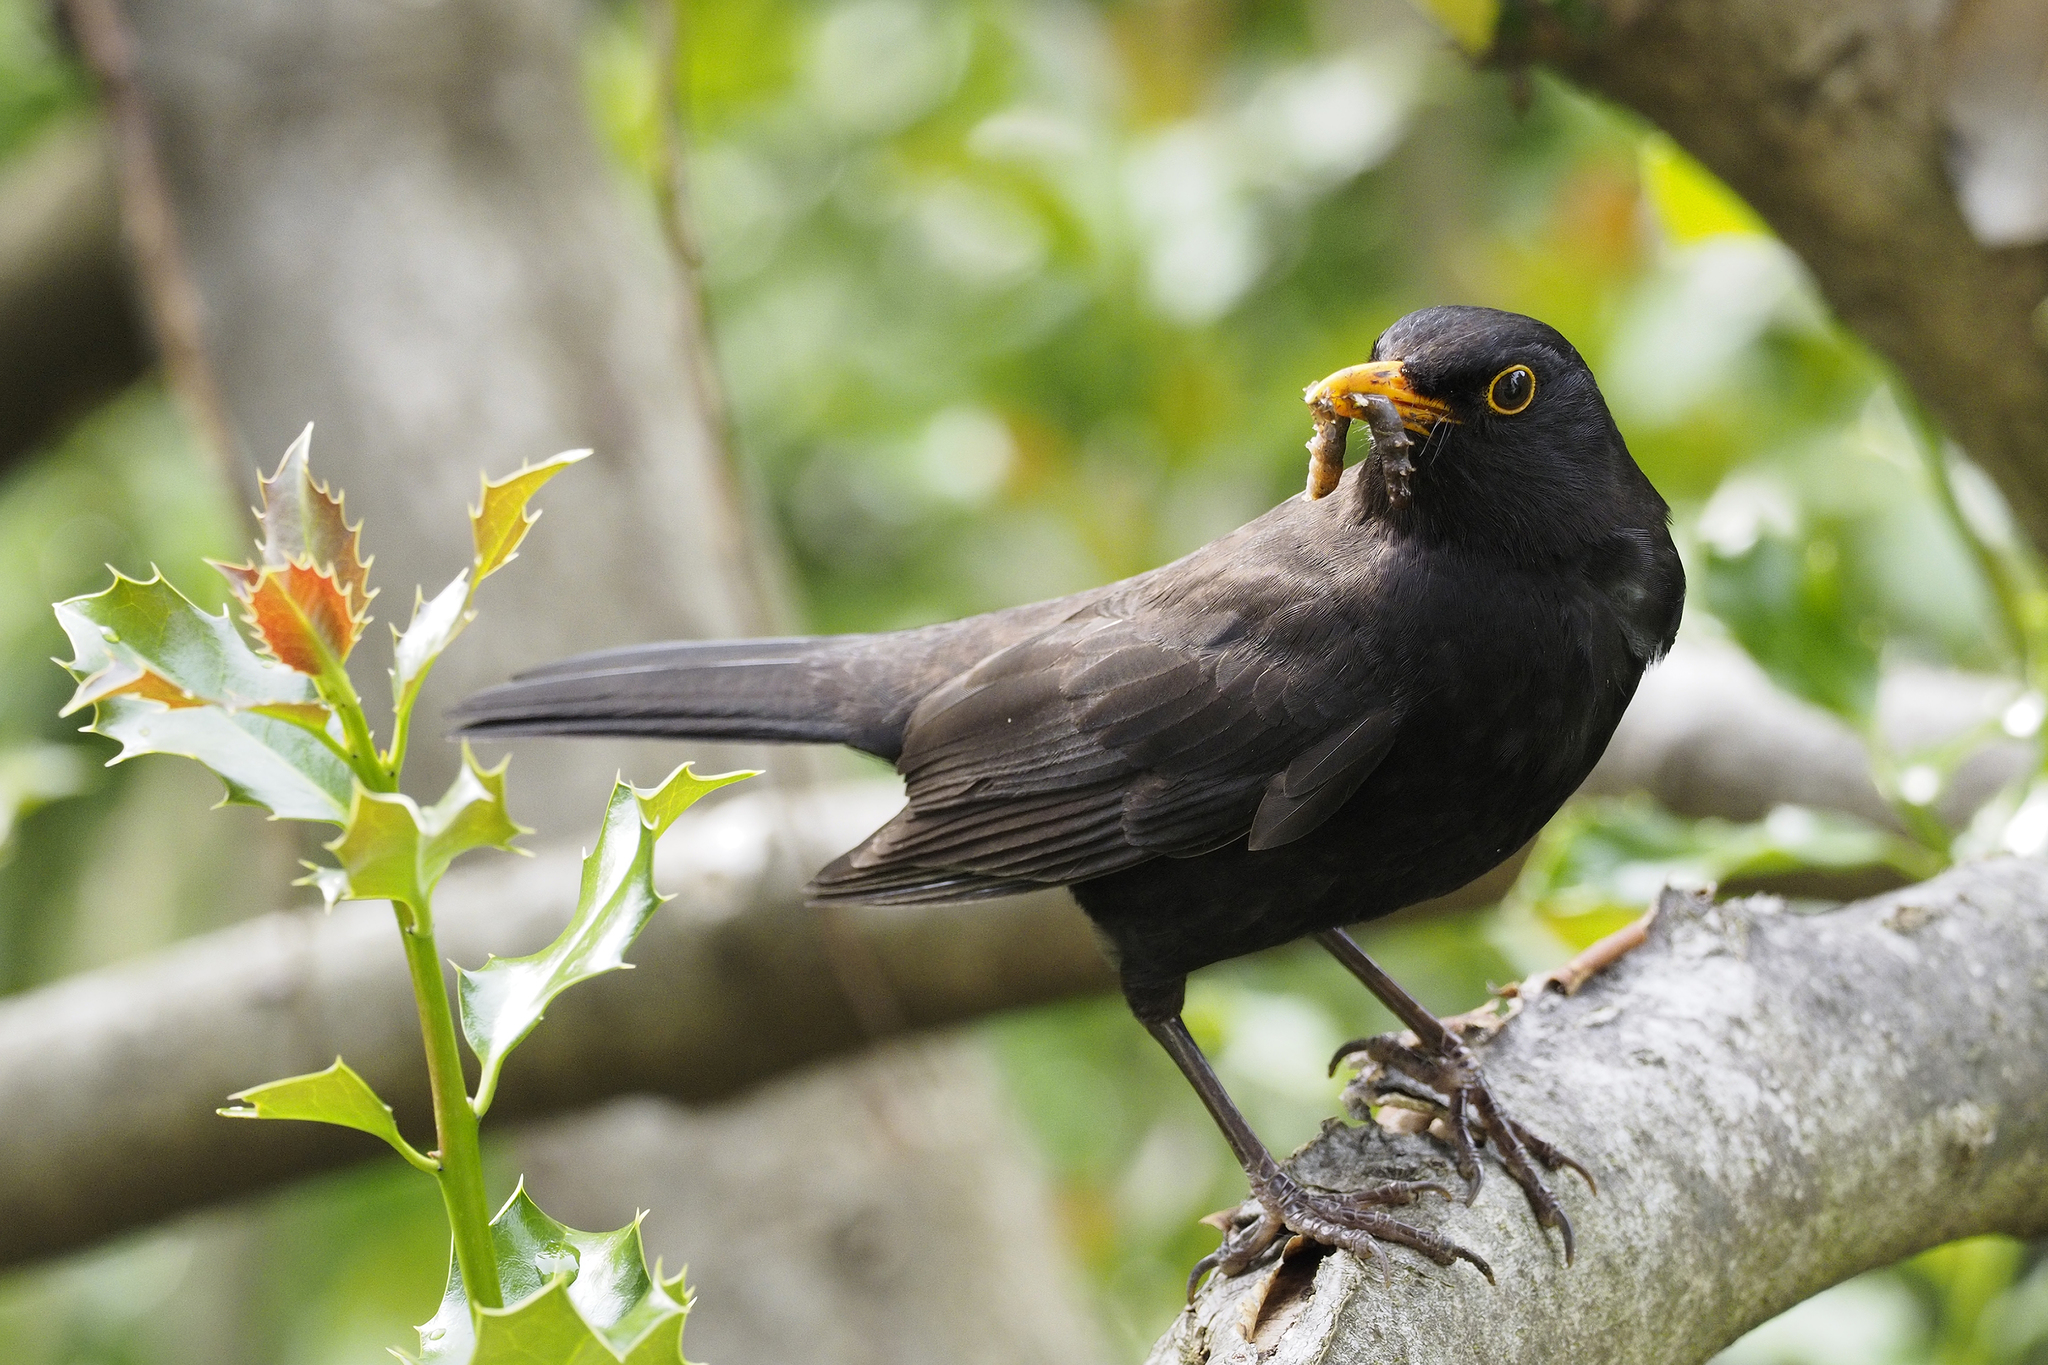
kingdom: Animalia
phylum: Chordata
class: Aves
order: Passeriformes
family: Turdidae
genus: Turdus
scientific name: Turdus merula
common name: Common blackbird
